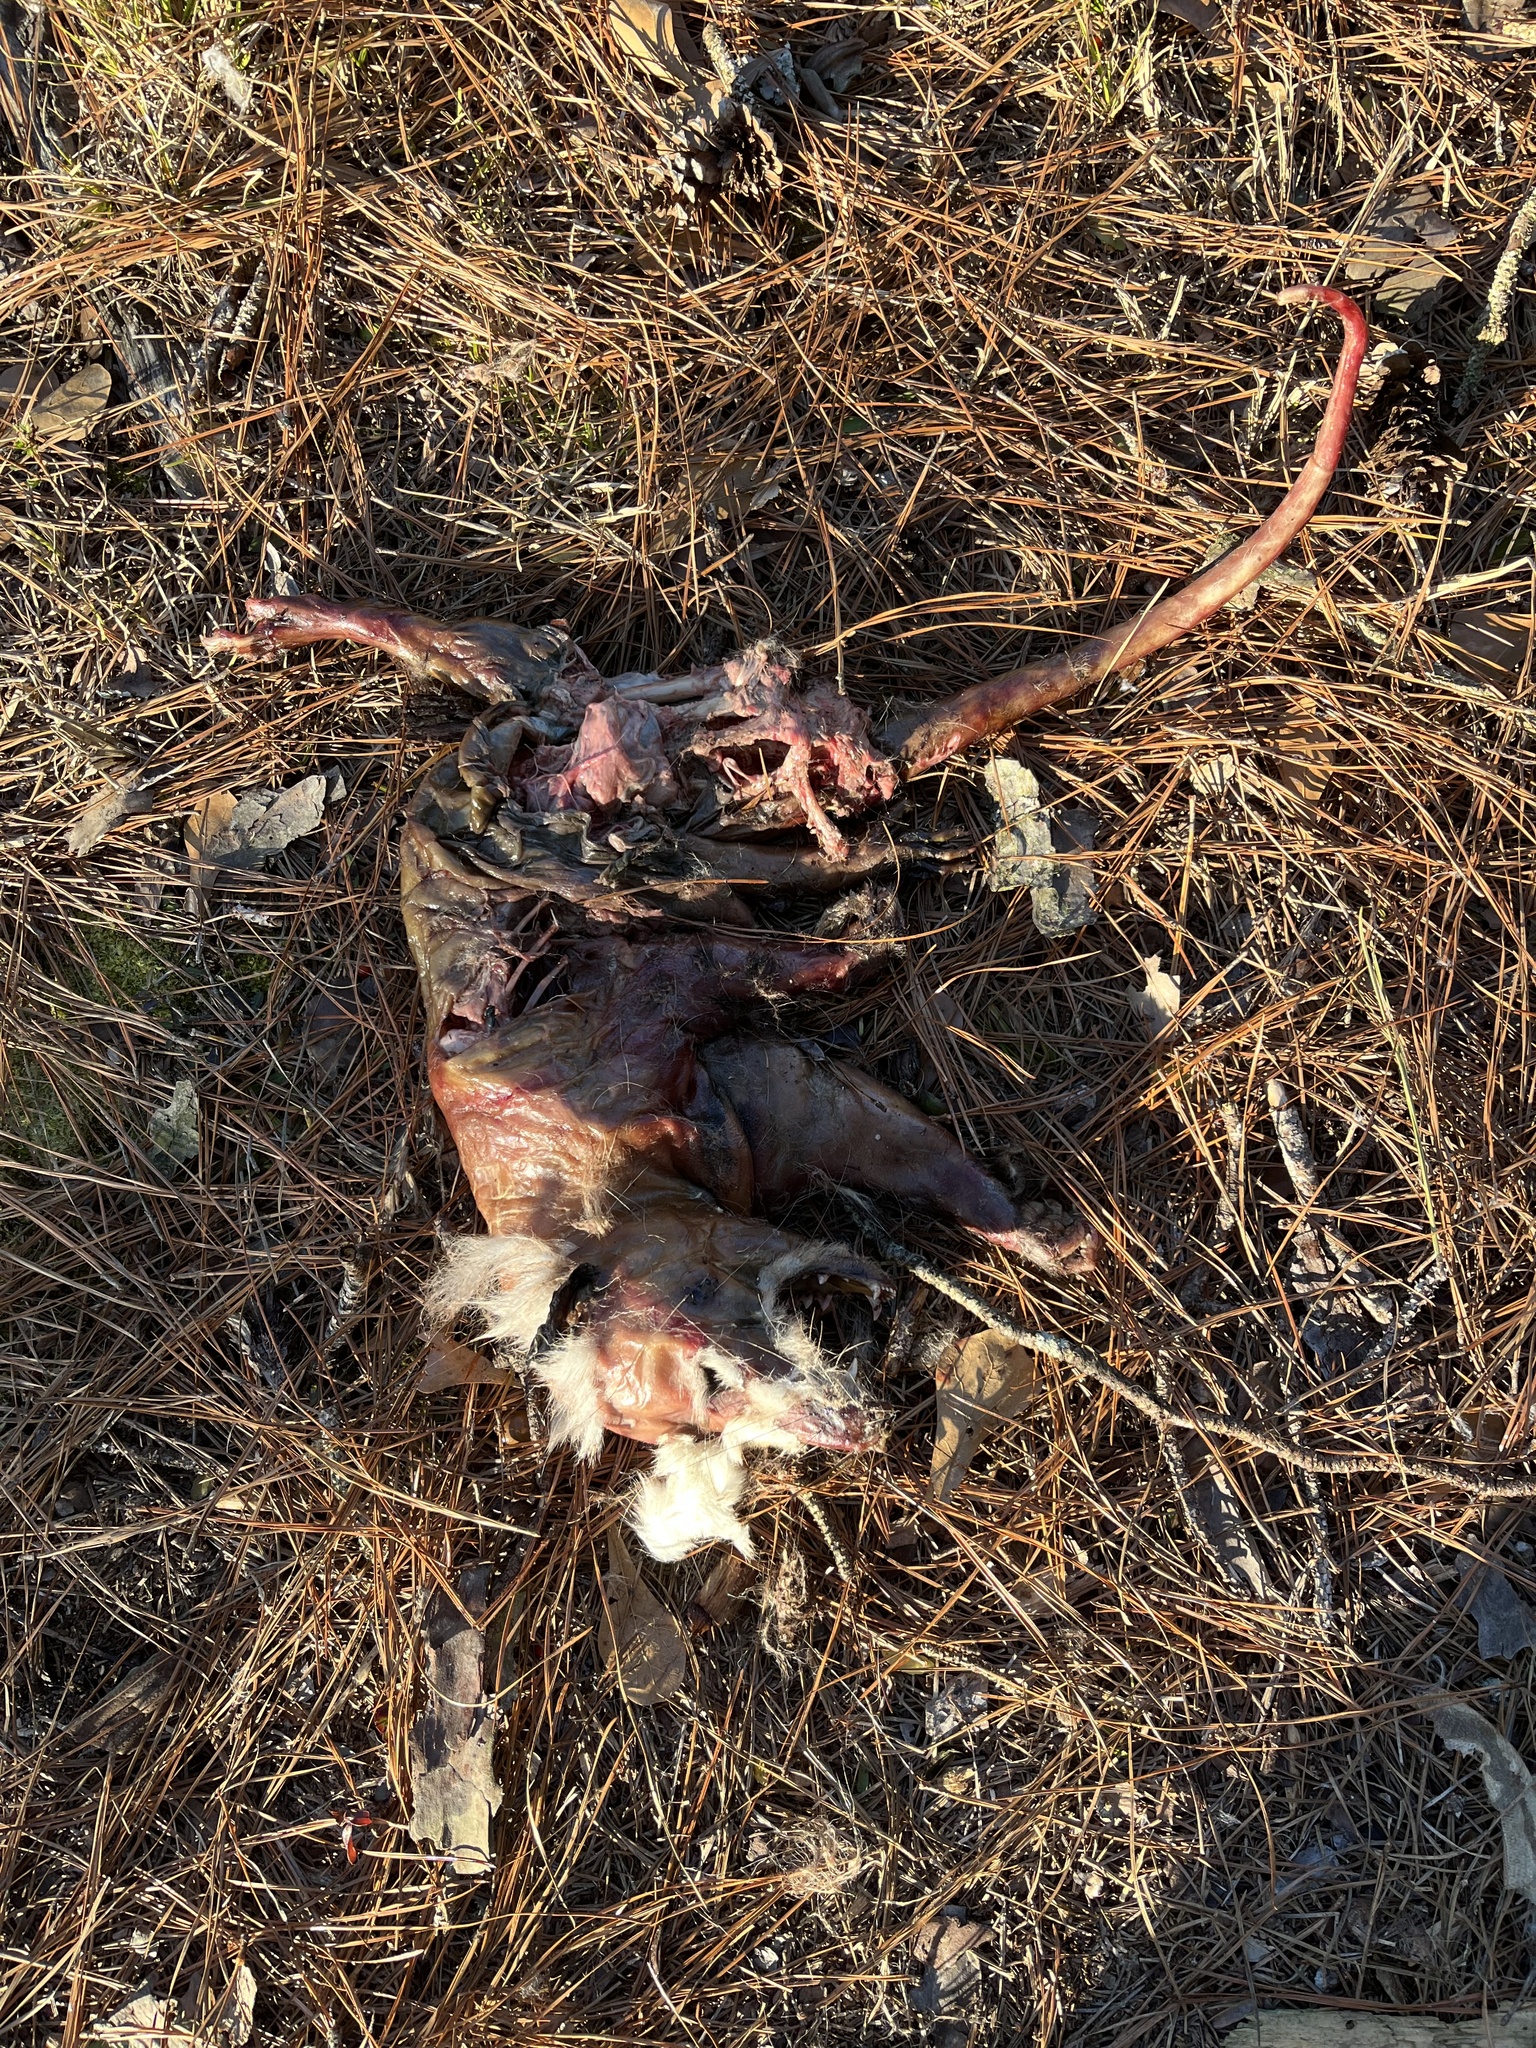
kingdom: Animalia
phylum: Chordata
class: Mammalia
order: Didelphimorphia
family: Didelphidae
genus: Didelphis
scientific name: Didelphis virginiana
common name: Virginia opossum
